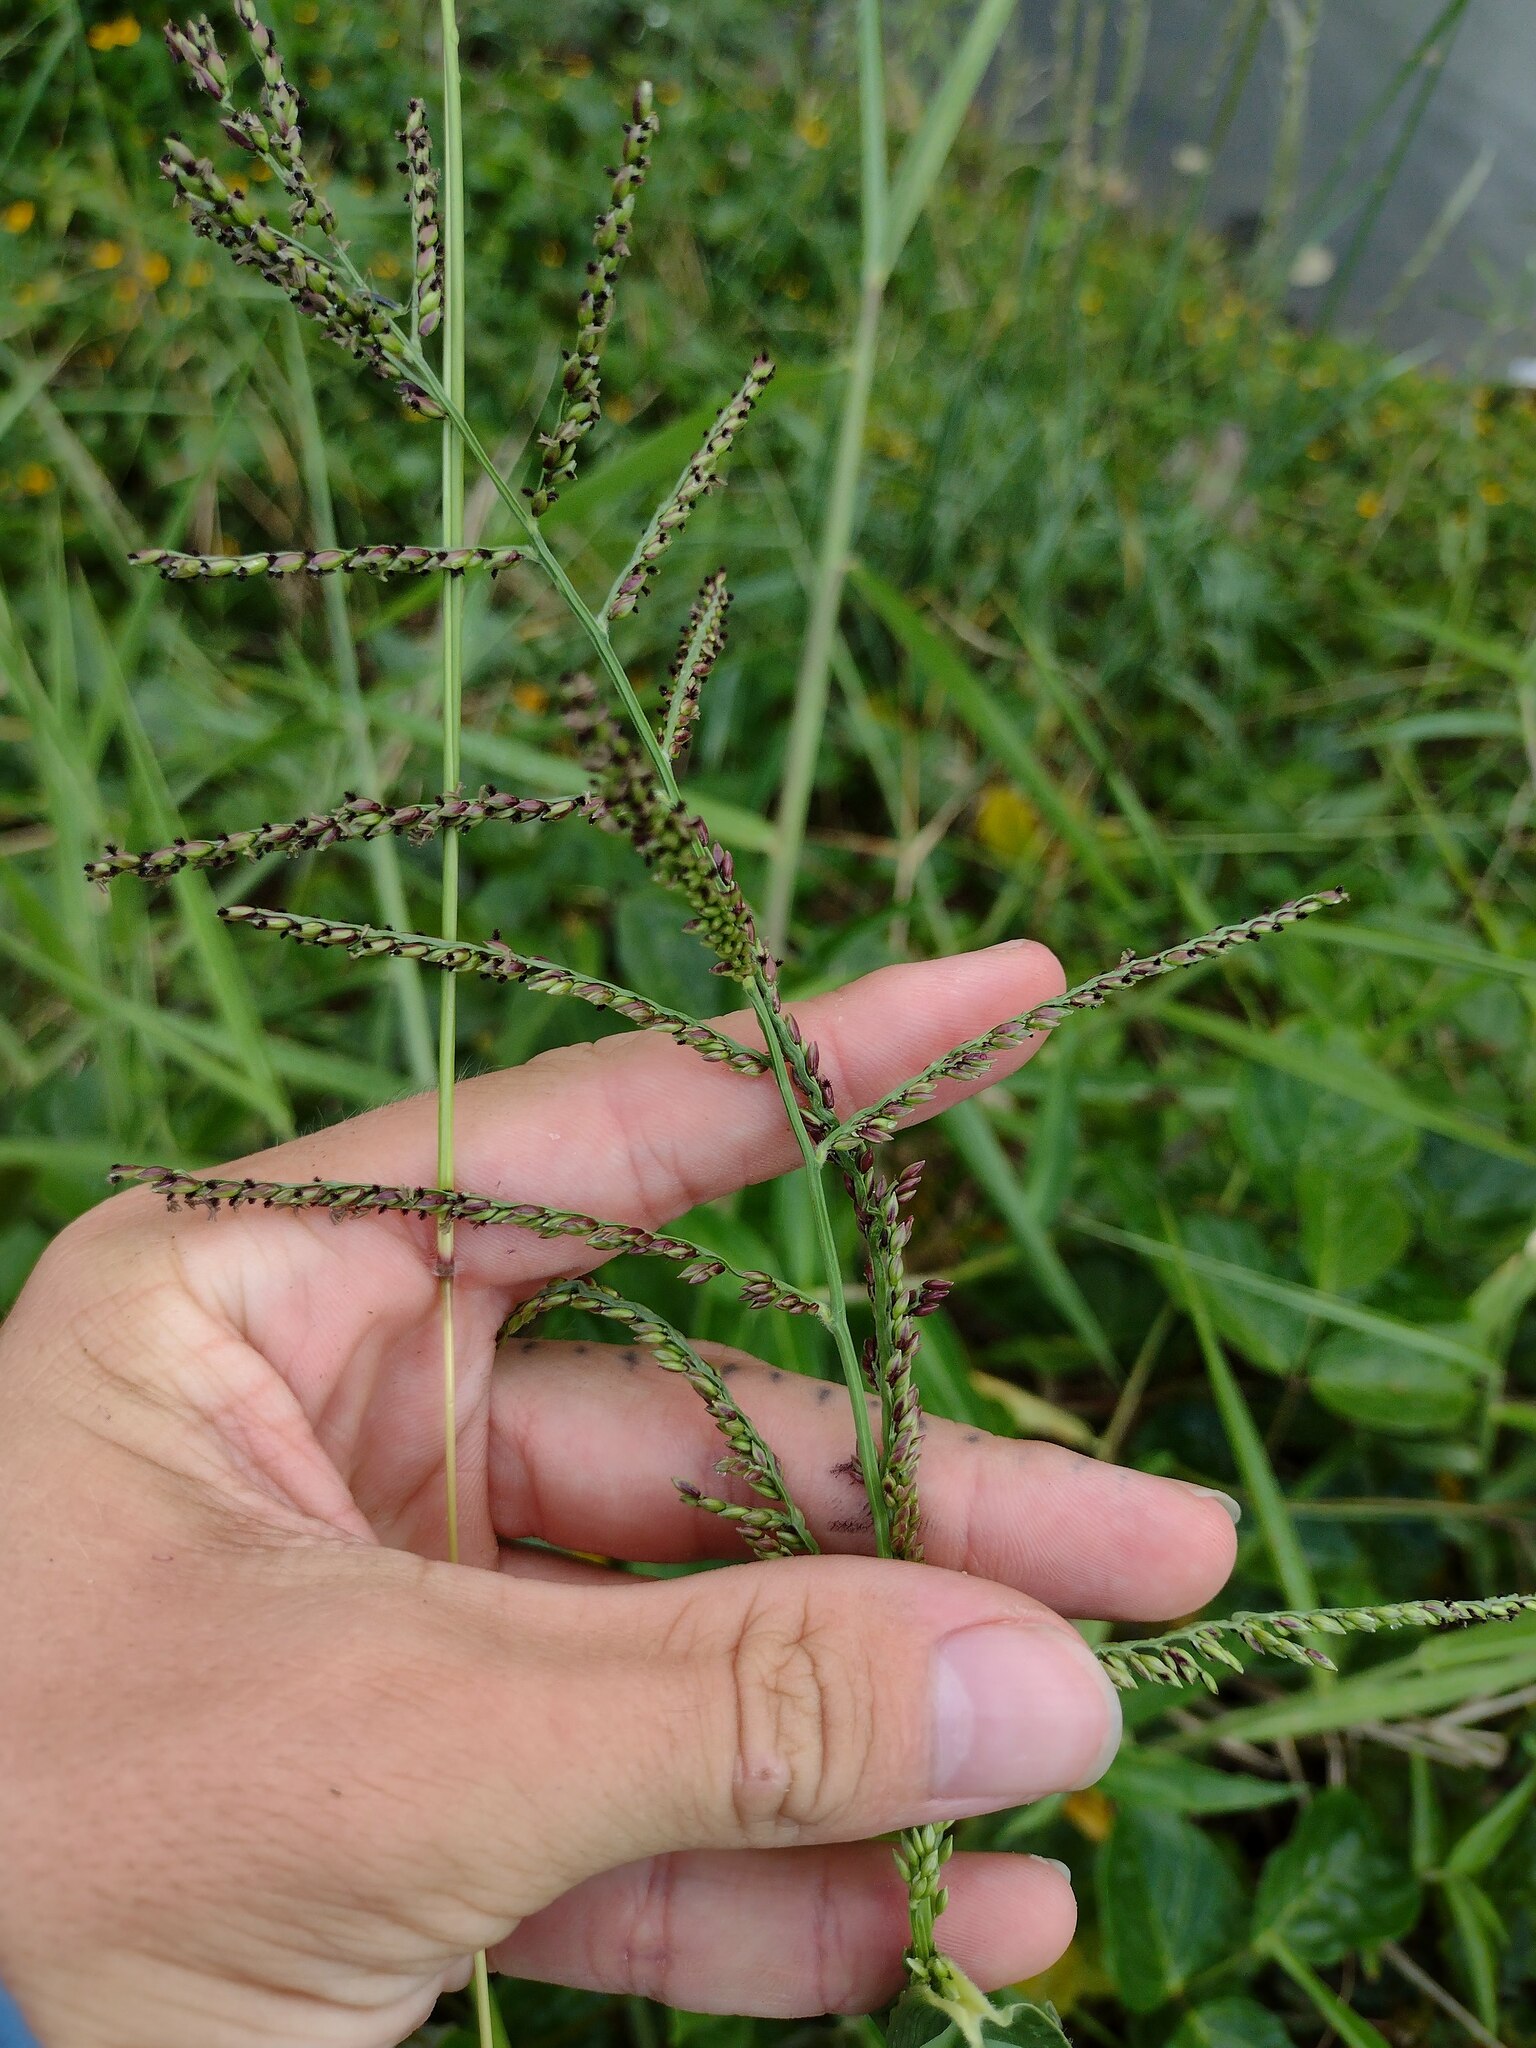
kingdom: Plantae
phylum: Tracheophyta
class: Liliopsida
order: Poales
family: Poaceae
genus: Urochloa
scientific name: Urochloa mutica
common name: Para grass
